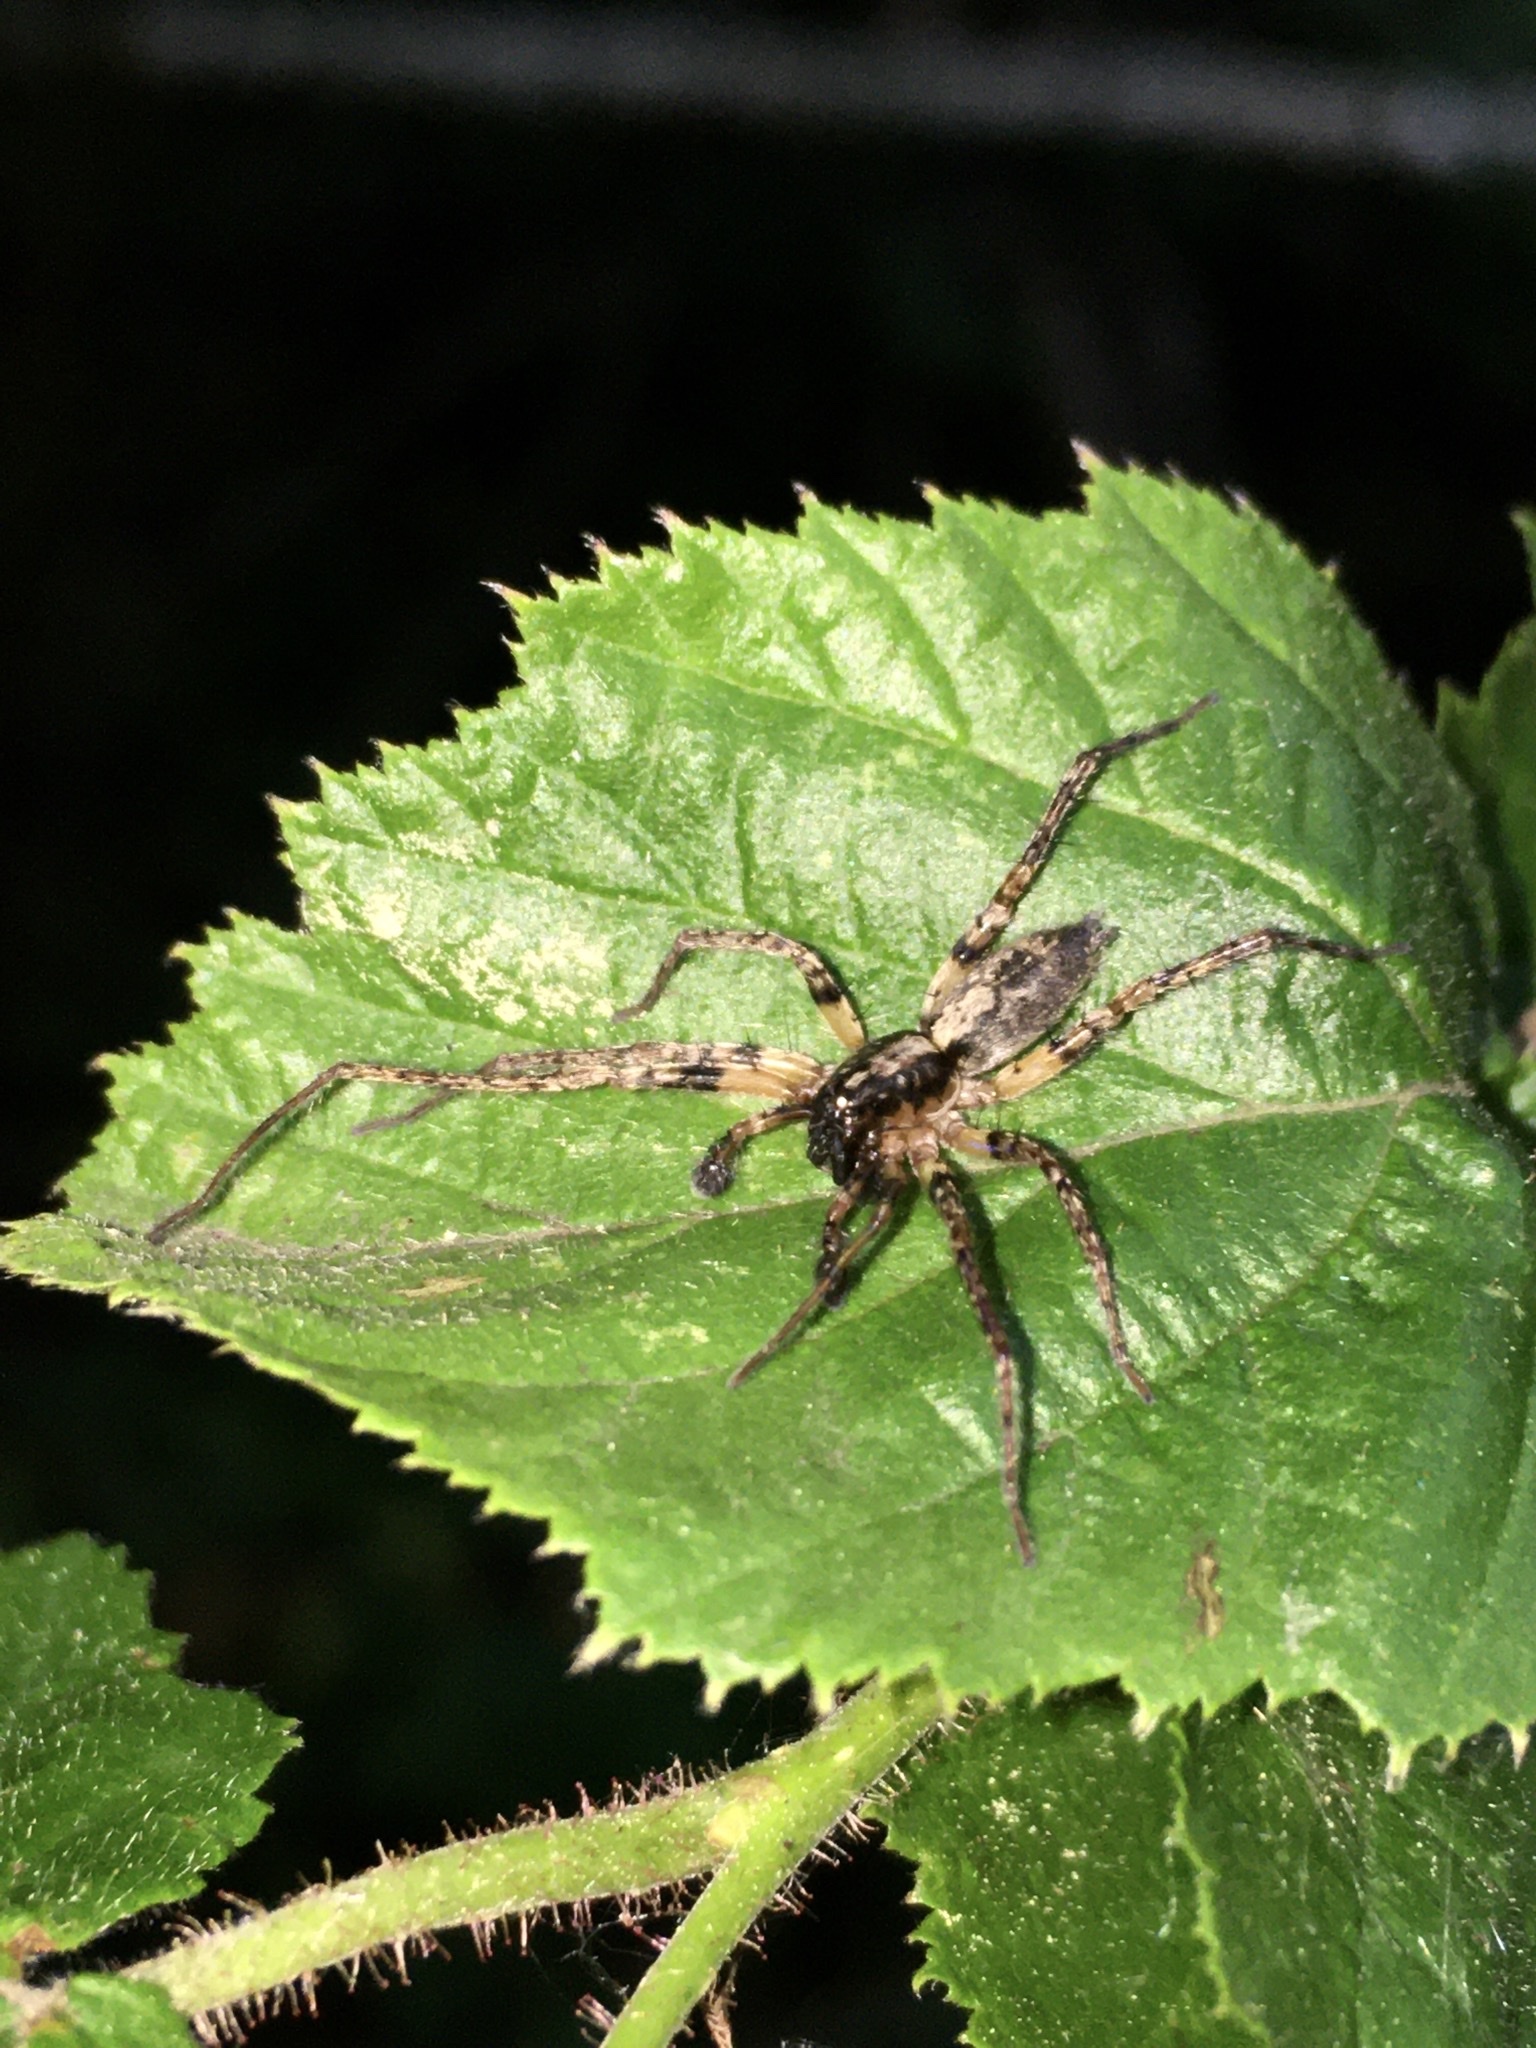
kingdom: Animalia
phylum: Arthropoda
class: Arachnida
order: Araneae
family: Anyphaenidae
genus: Anyphaena
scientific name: Anyphaena accentuata
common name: Buzzing spider
